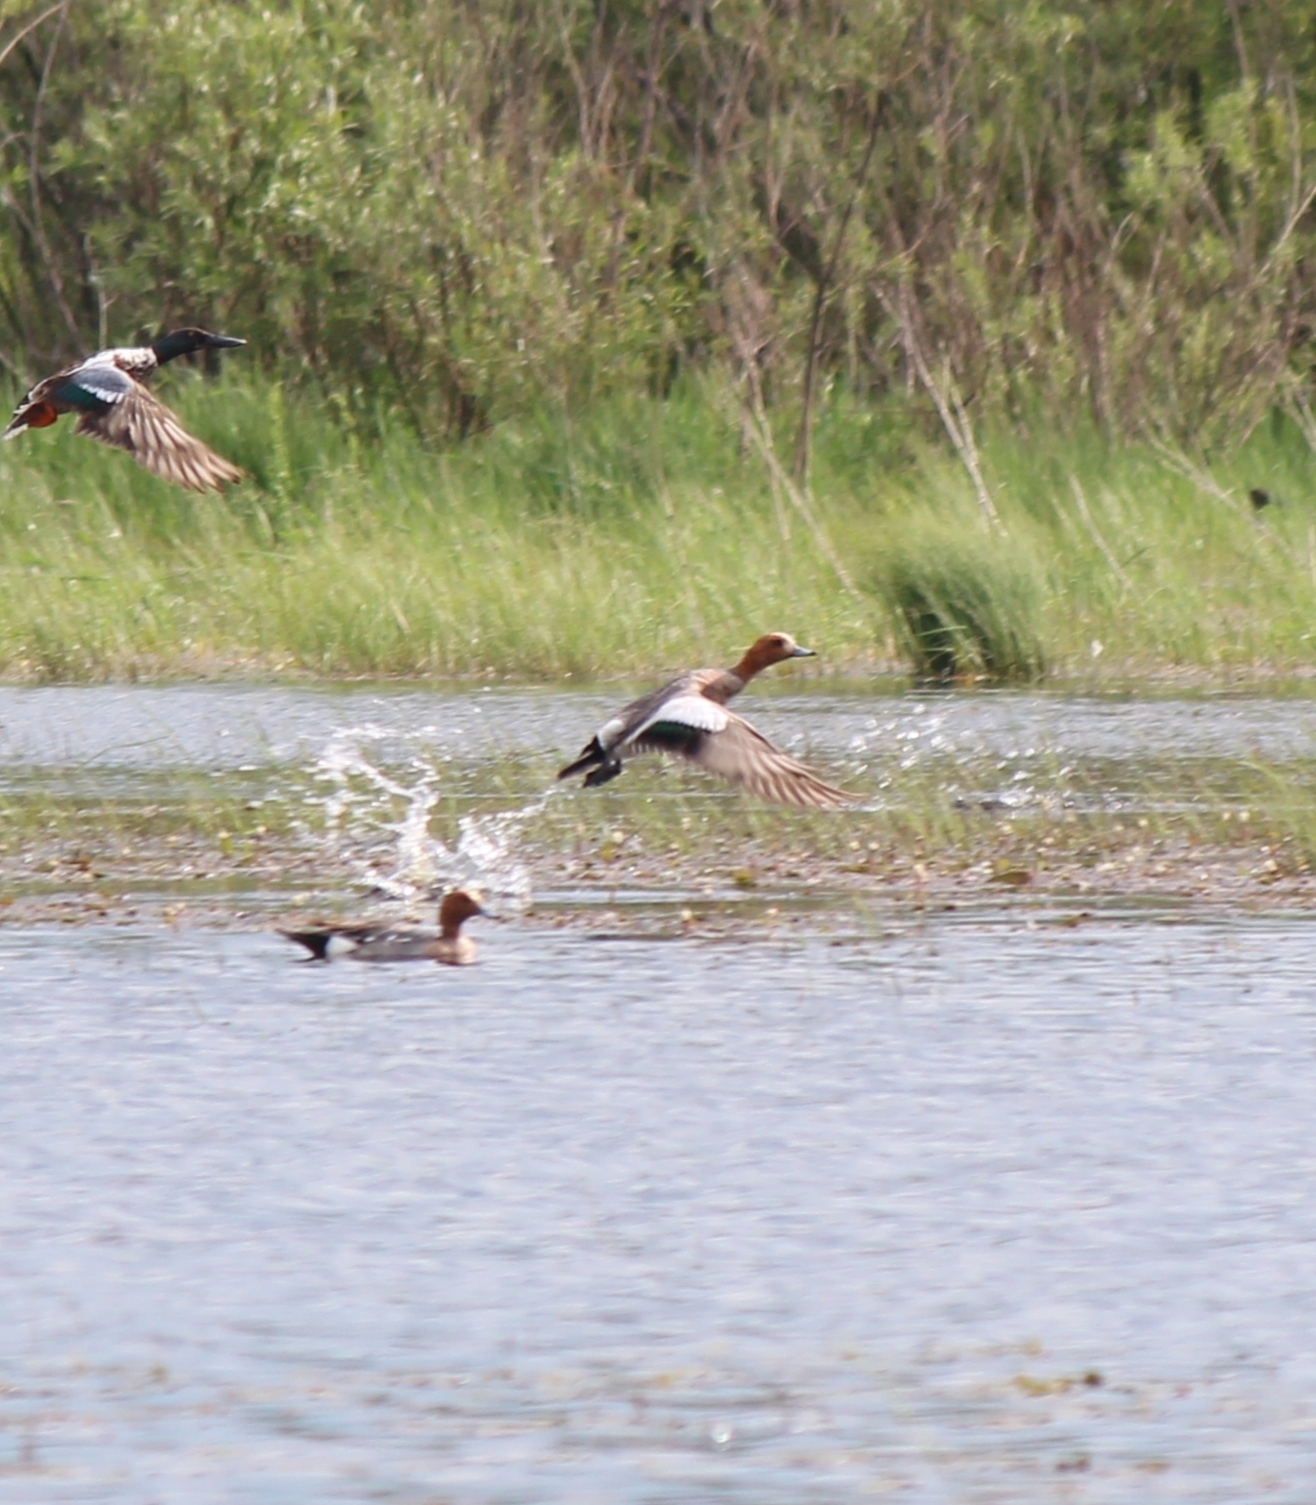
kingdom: Animalia
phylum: Chordata
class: Aves
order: Anseriformes
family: Anatidae
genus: Mareca
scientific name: Mareca penelope
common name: Eurasian wigeon
